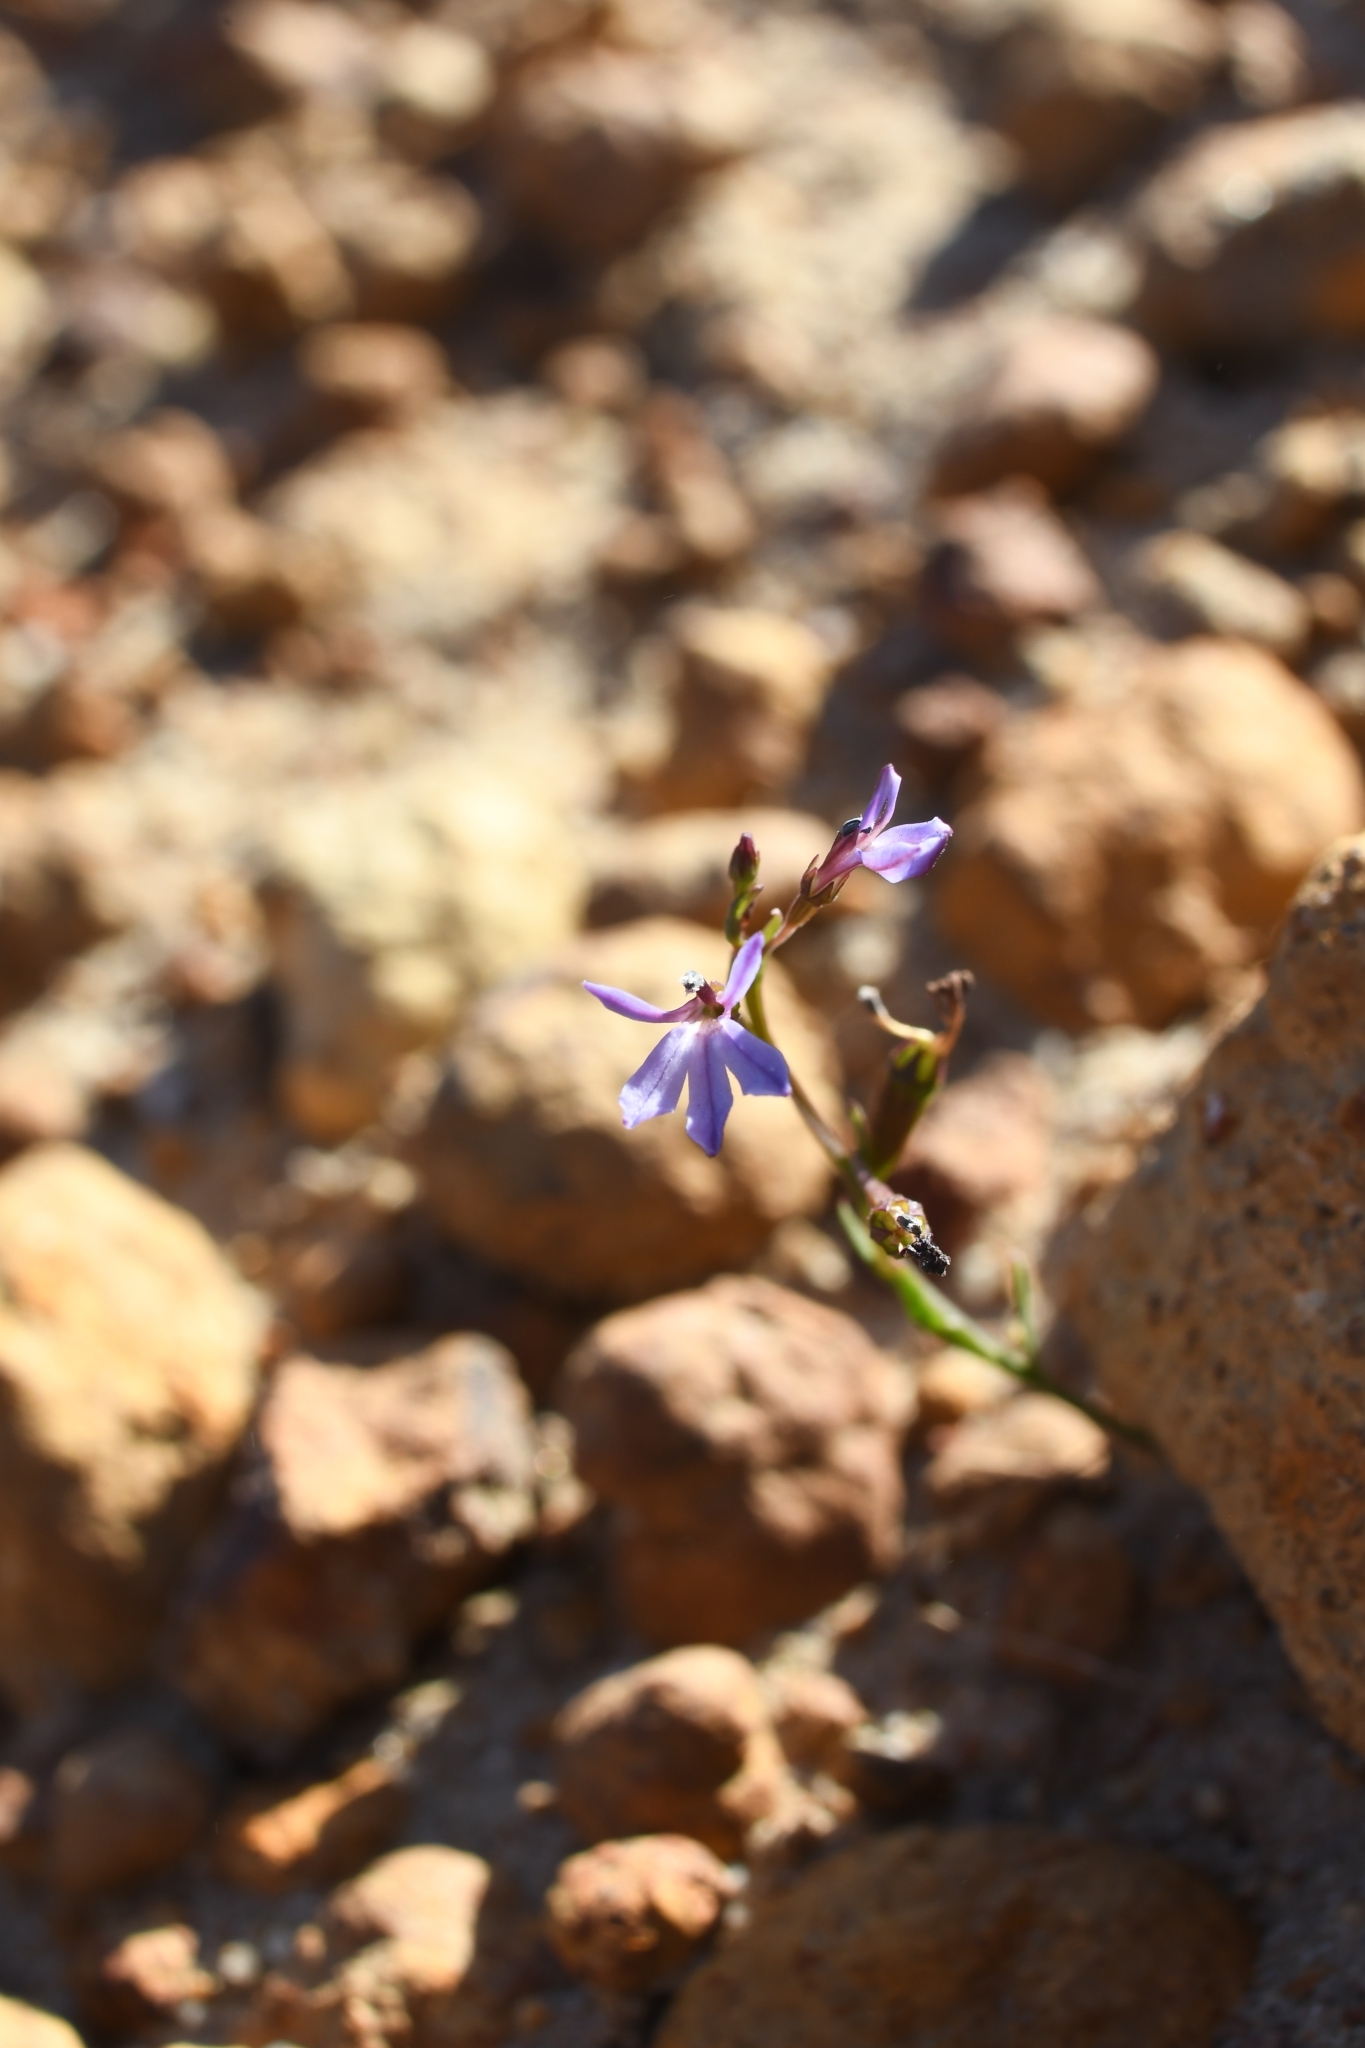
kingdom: Plantae
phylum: Tracheophyta
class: Magnoliopsida
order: Asterales
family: Campanulaceae
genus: Lobelia
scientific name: Lobelia anceps
